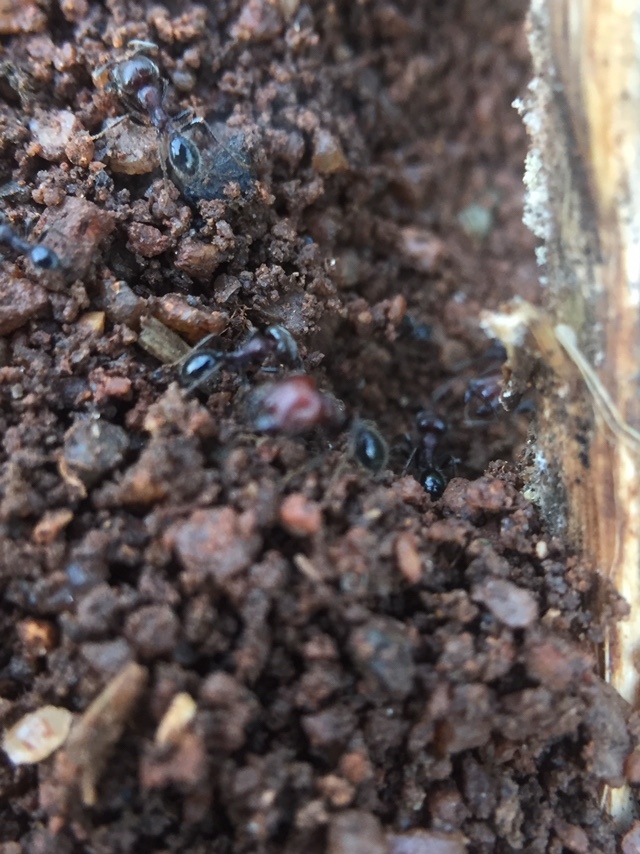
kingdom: Animalia
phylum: Arthropoda
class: Insecta
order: Hymenoptera
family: Formicidae
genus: Trichomyrmex
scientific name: Trichomyrmex
